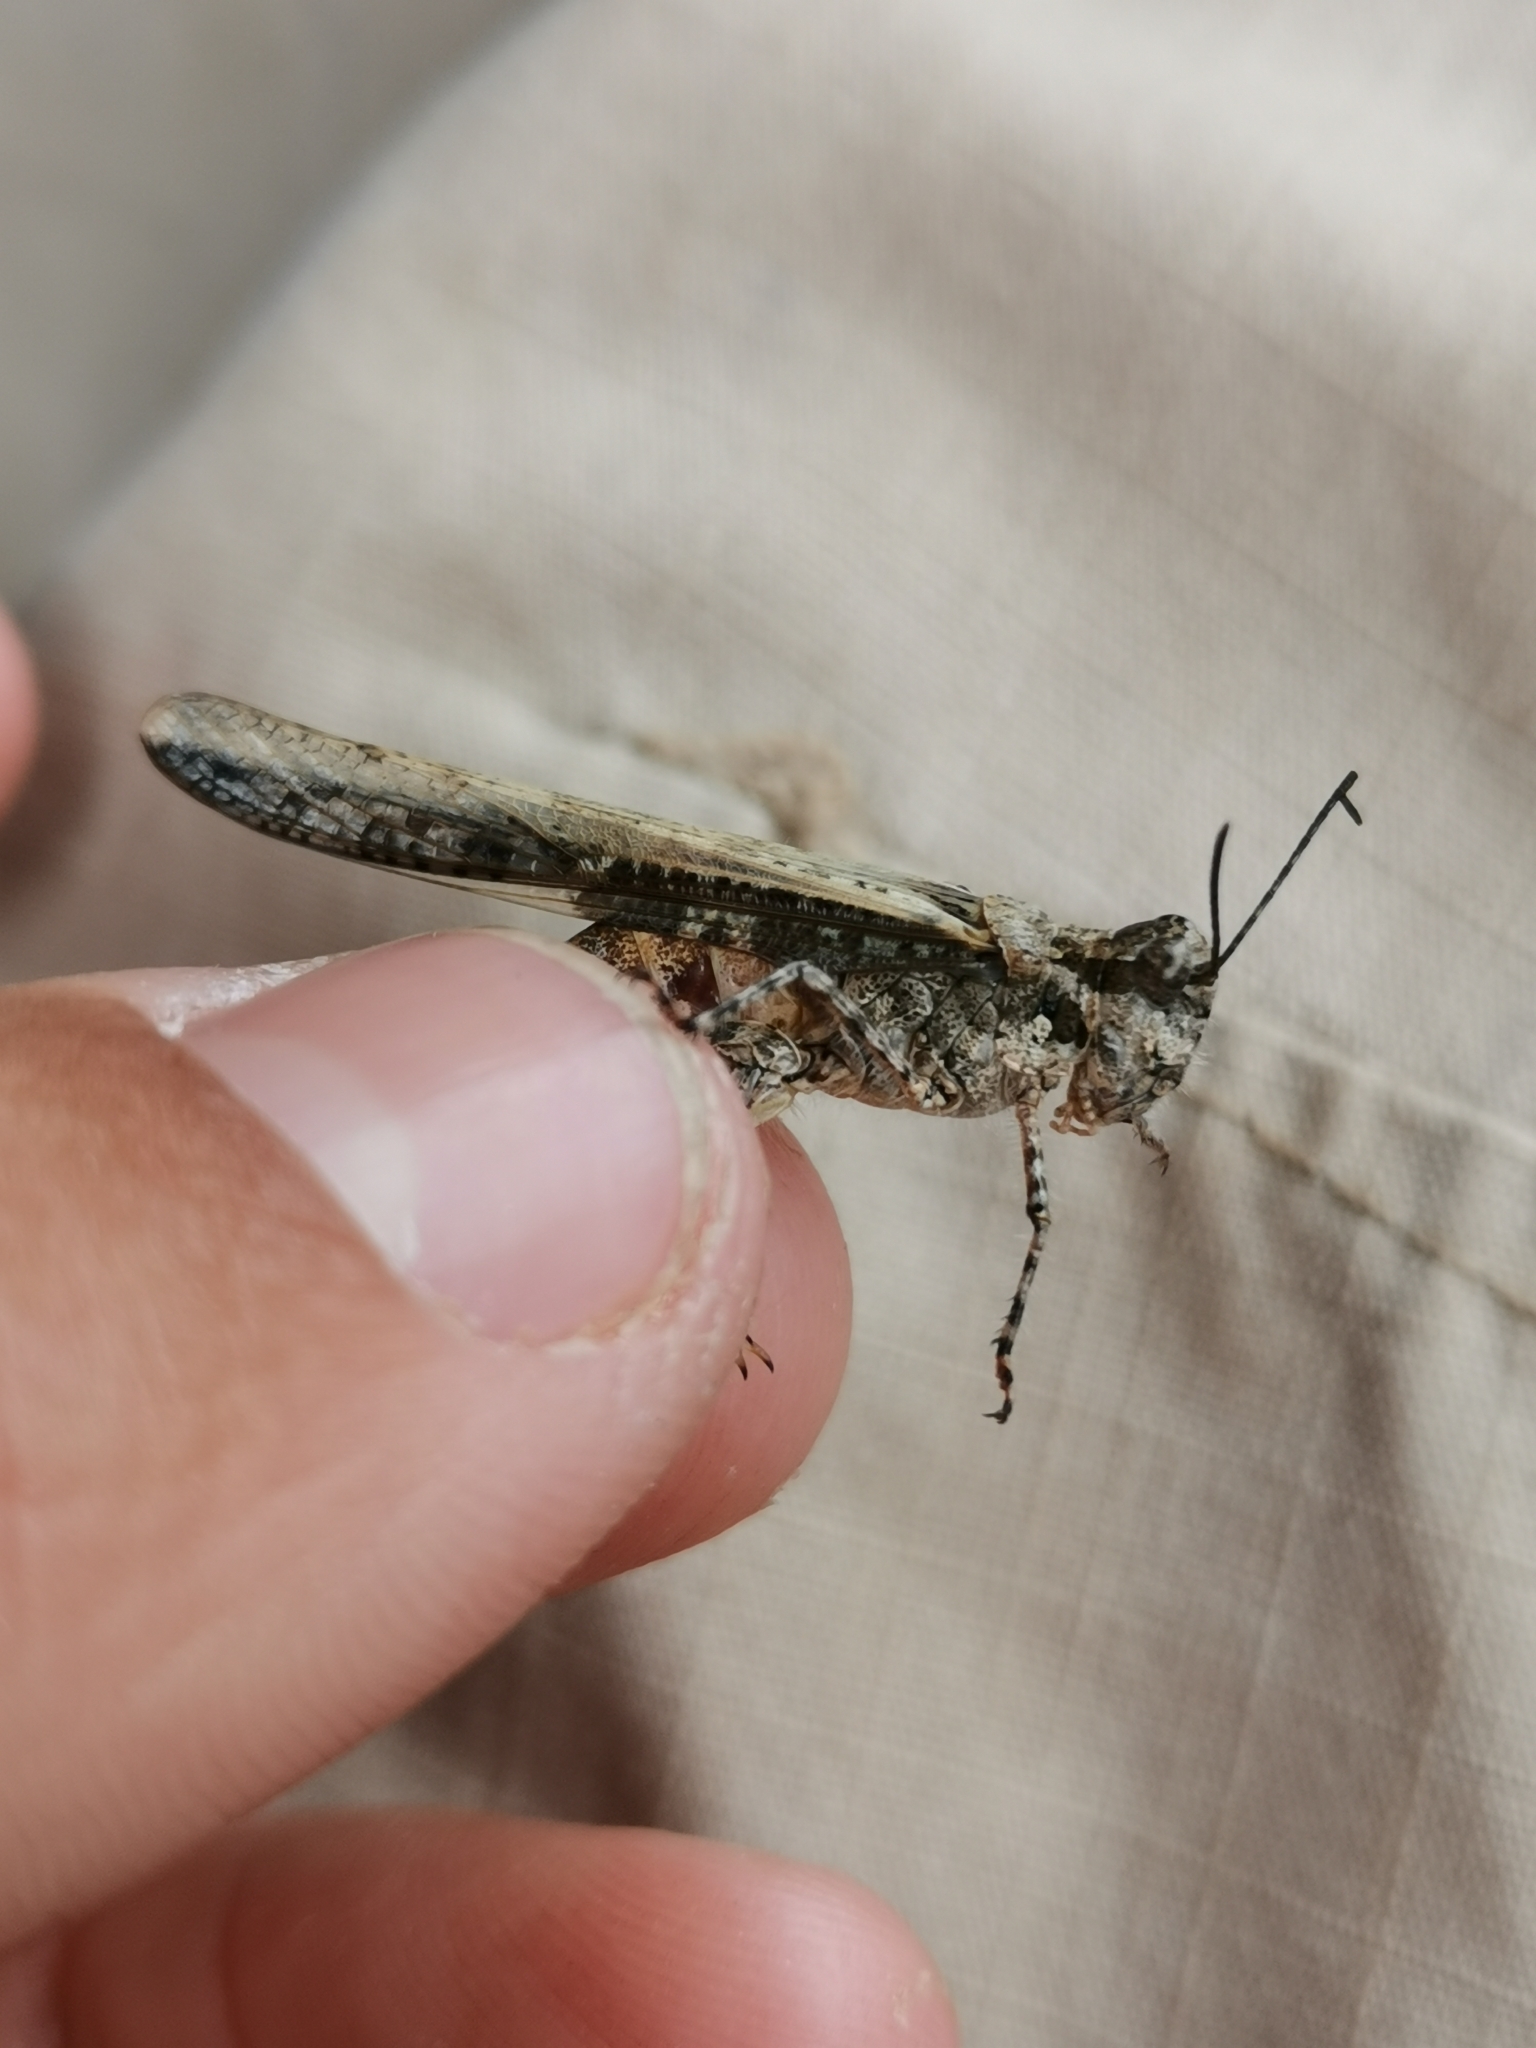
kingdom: Animalia
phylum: Arthropoda
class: Insecta
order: Orthoptera
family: Acrididae
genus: Acrotylus
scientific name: Acrotylus patruelis
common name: Slender burrowing grasshopper
